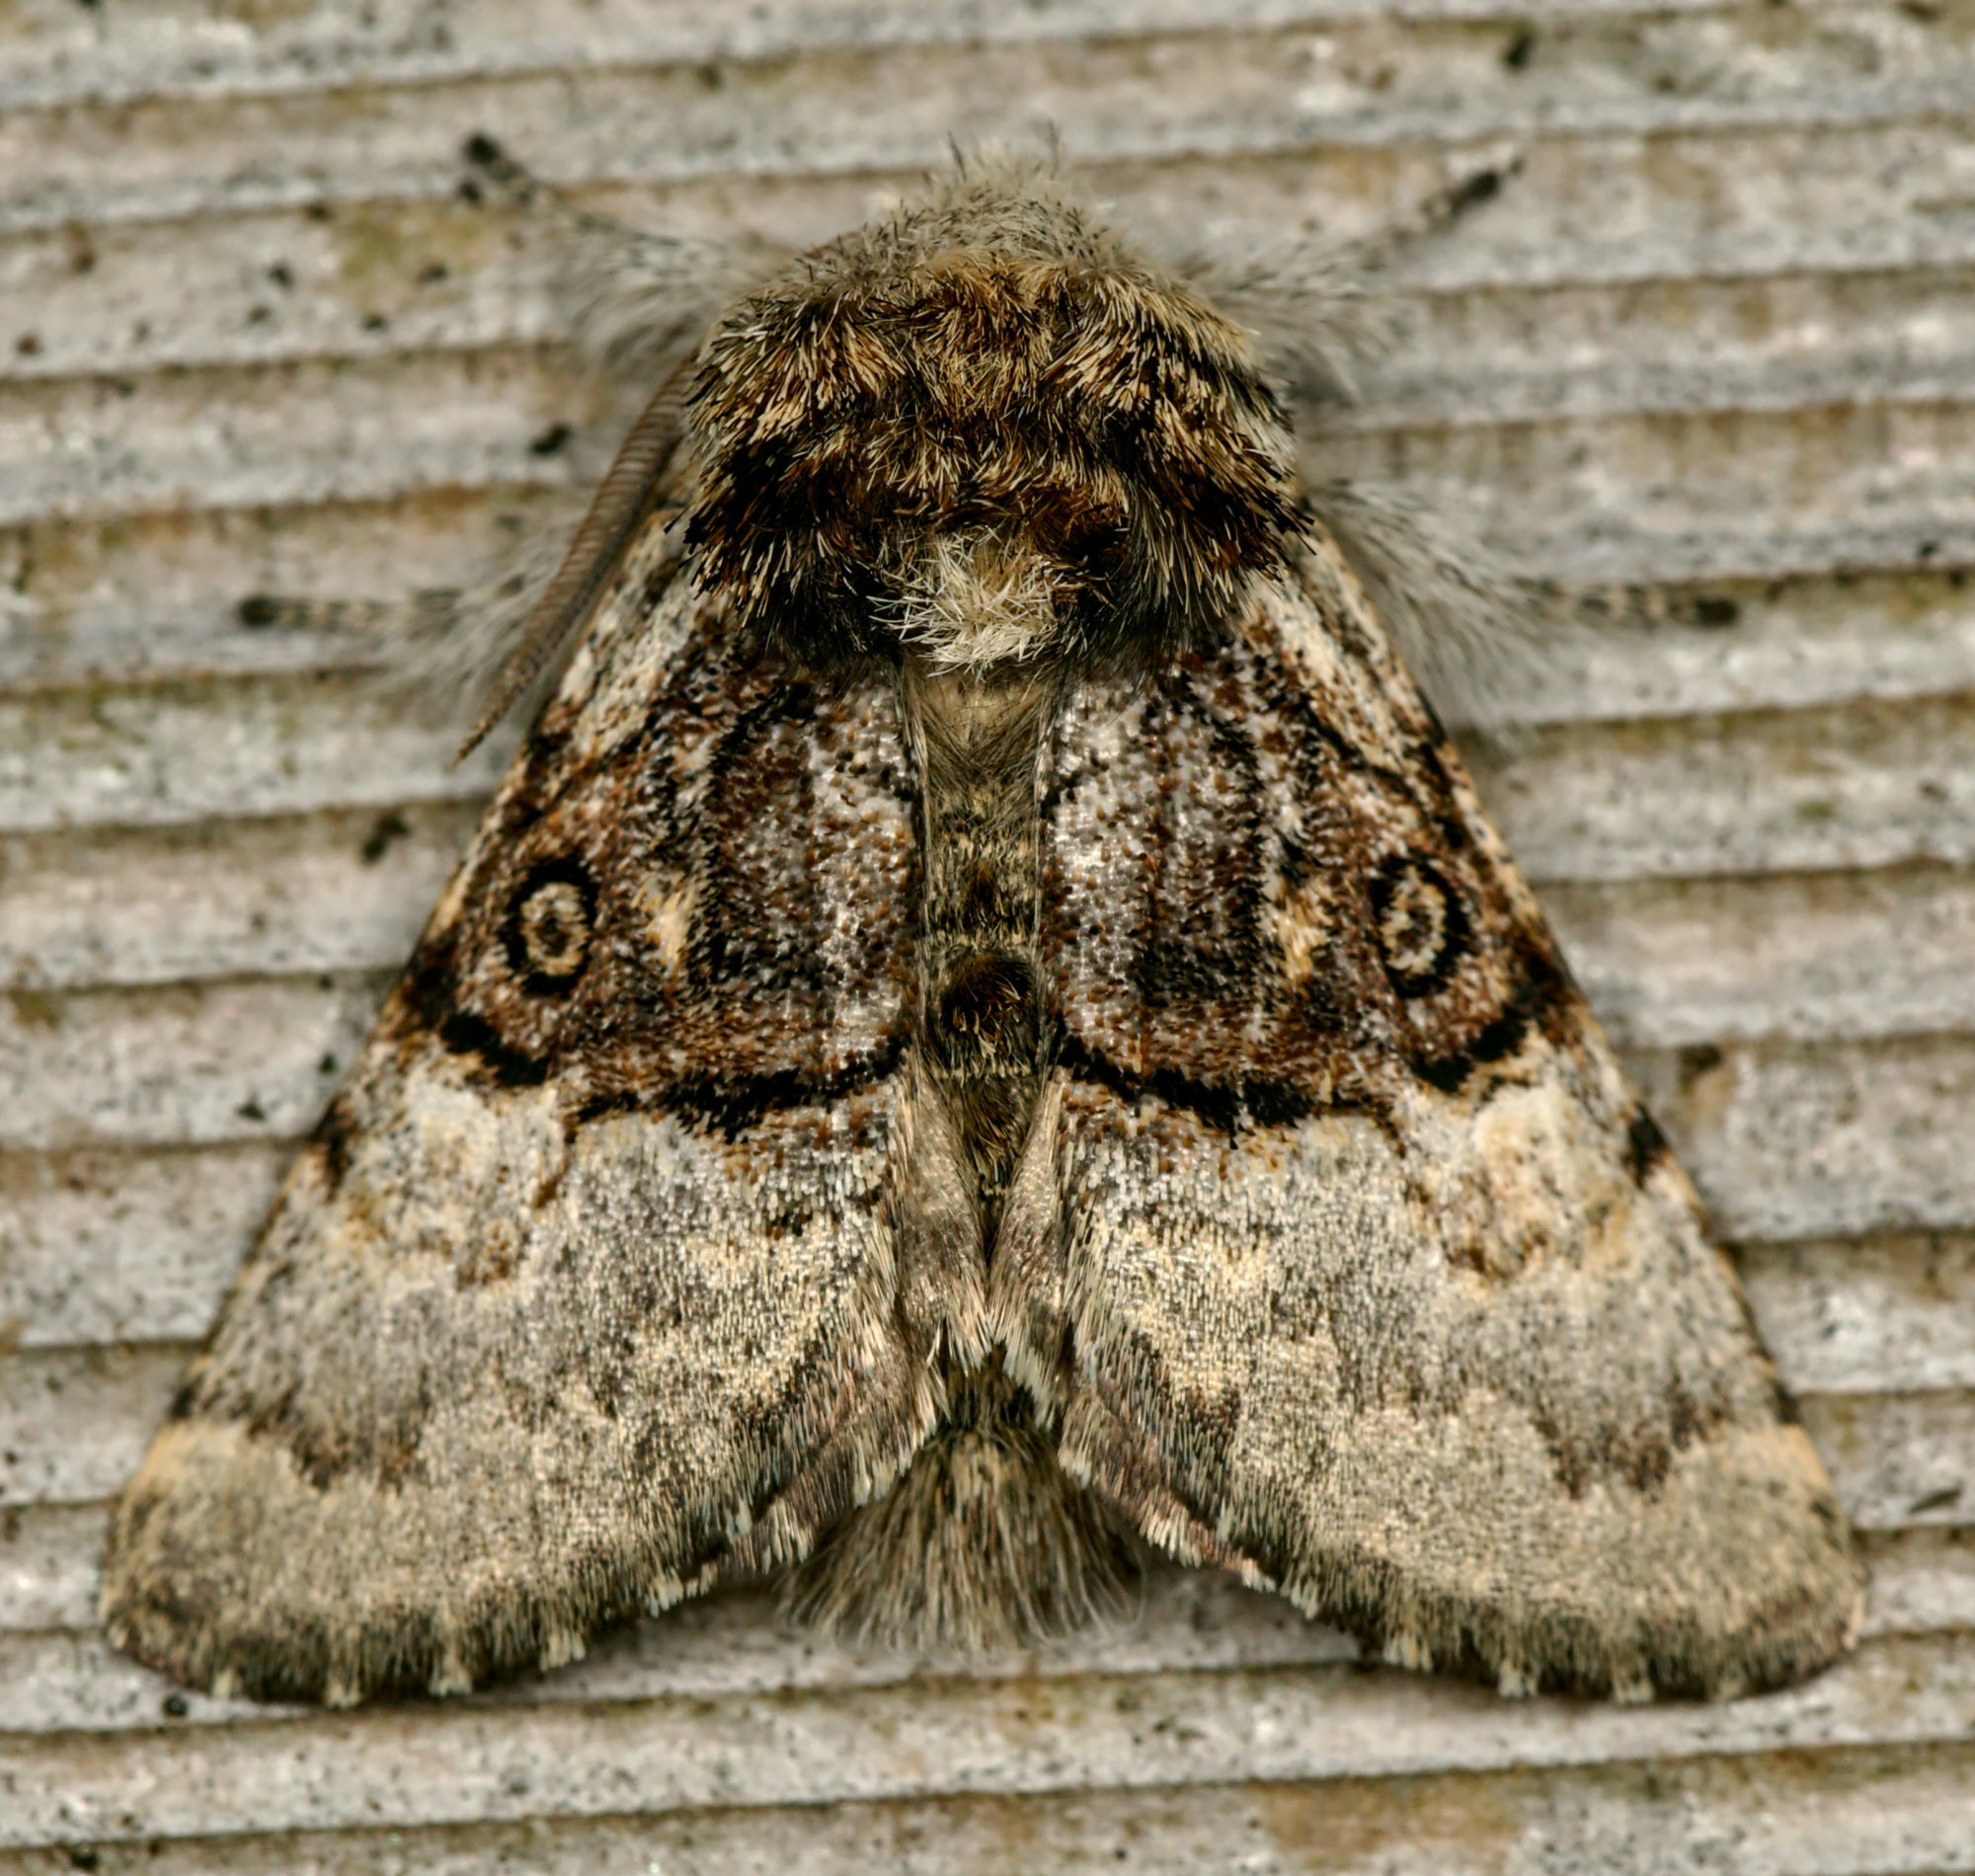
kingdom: Animalia
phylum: Arthropoda
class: Insecta
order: Lepidoptera
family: Noctuidae
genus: Colocasia
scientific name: Colocasia coryli
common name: Nut-tree tussock
